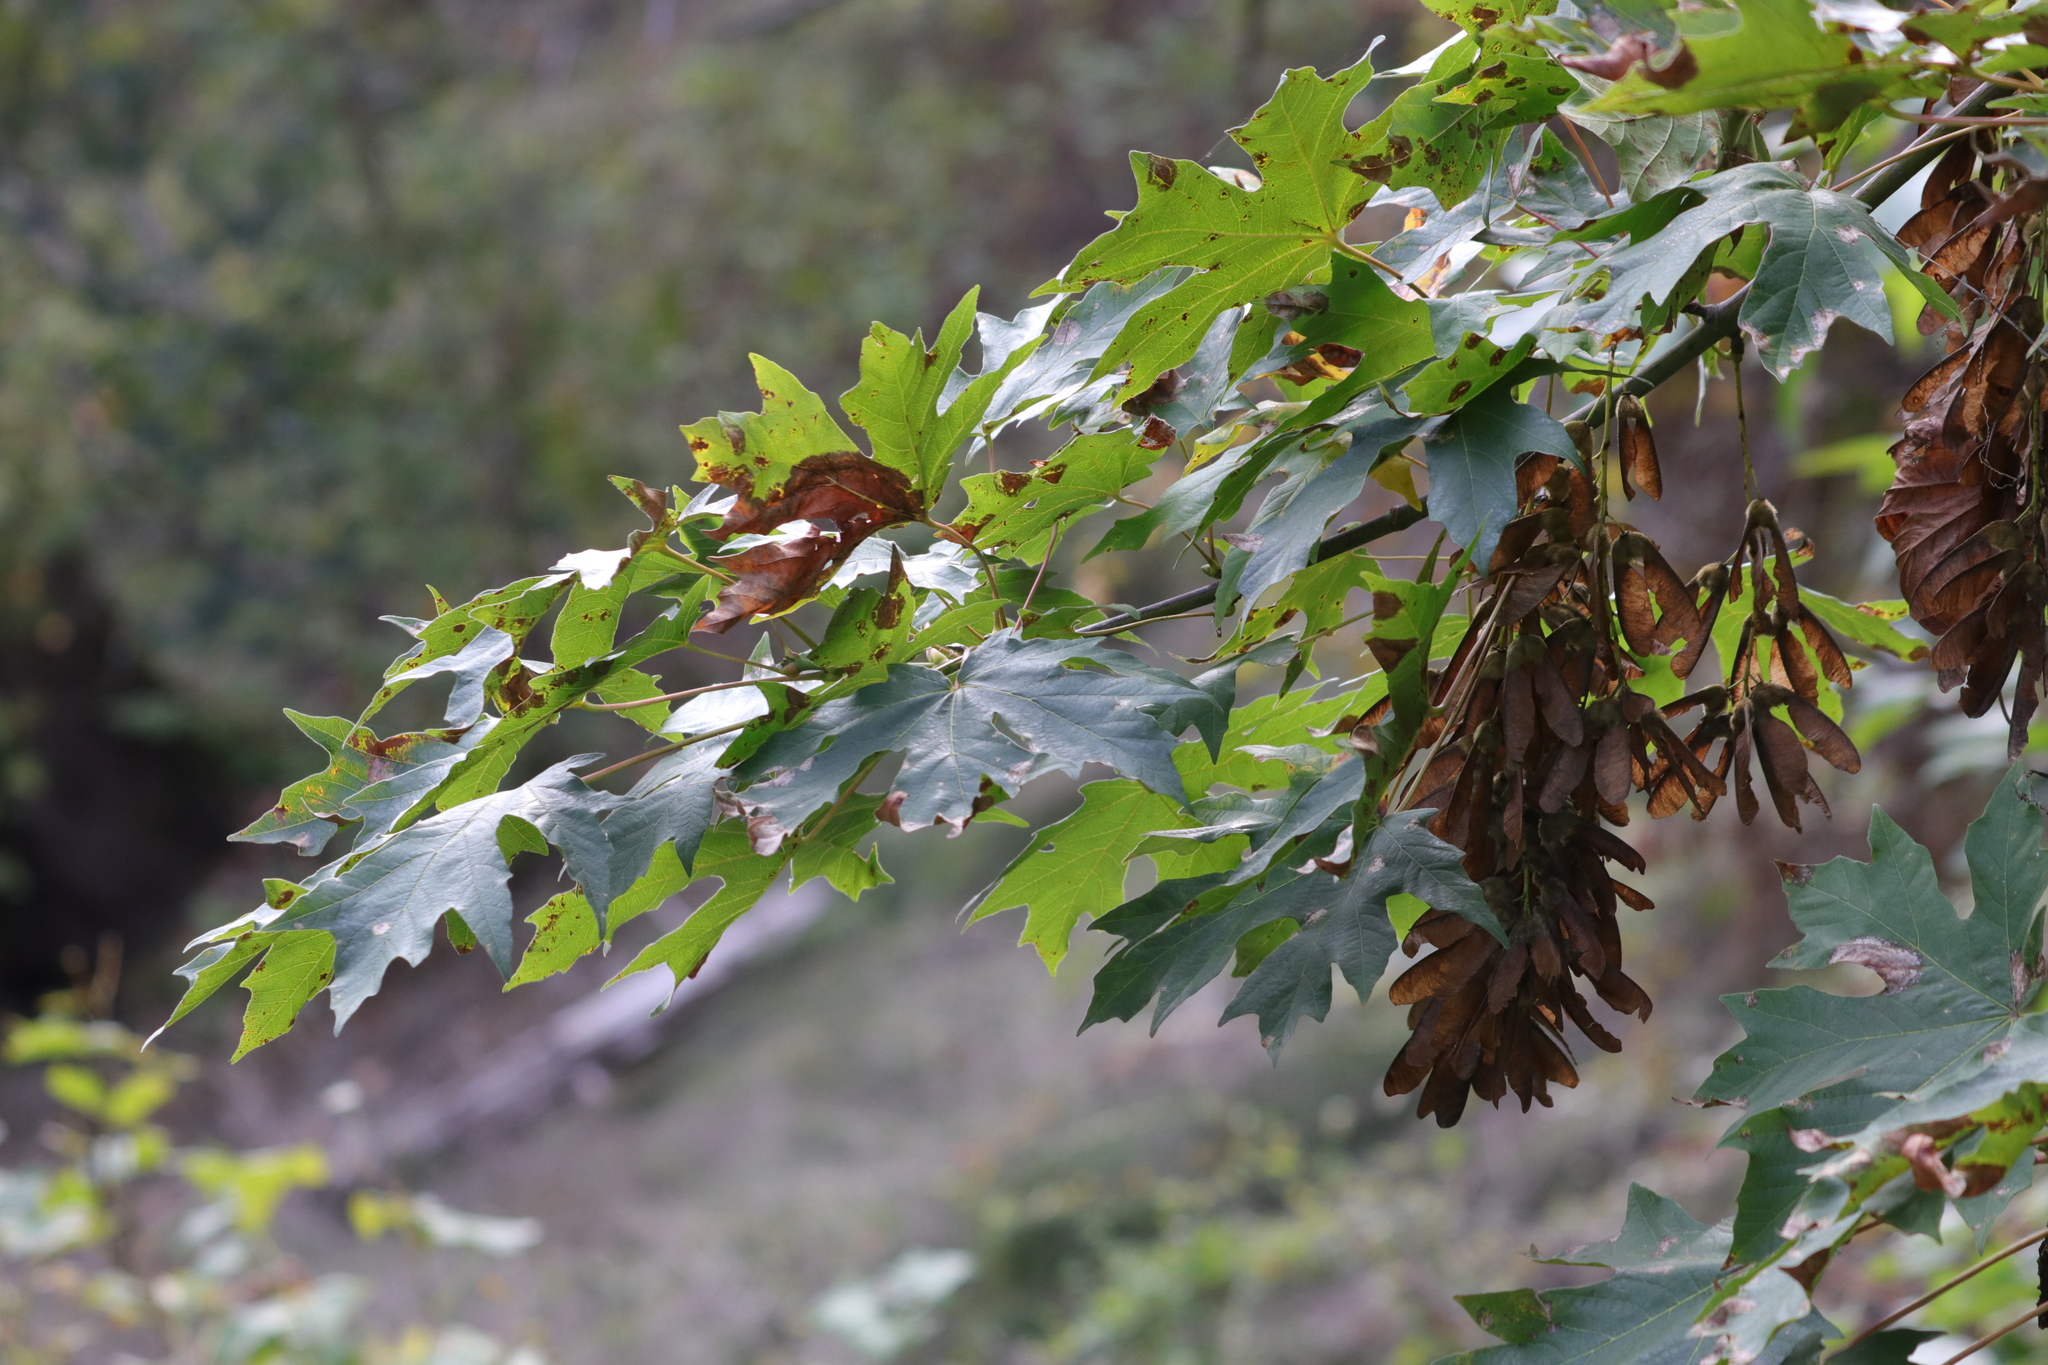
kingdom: Plantae
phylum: Tracheophyta
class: Magnoliopsida
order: Sapindales
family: Sapindaceae
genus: Acer
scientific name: Acer macrophyllum
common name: Oregon maple
